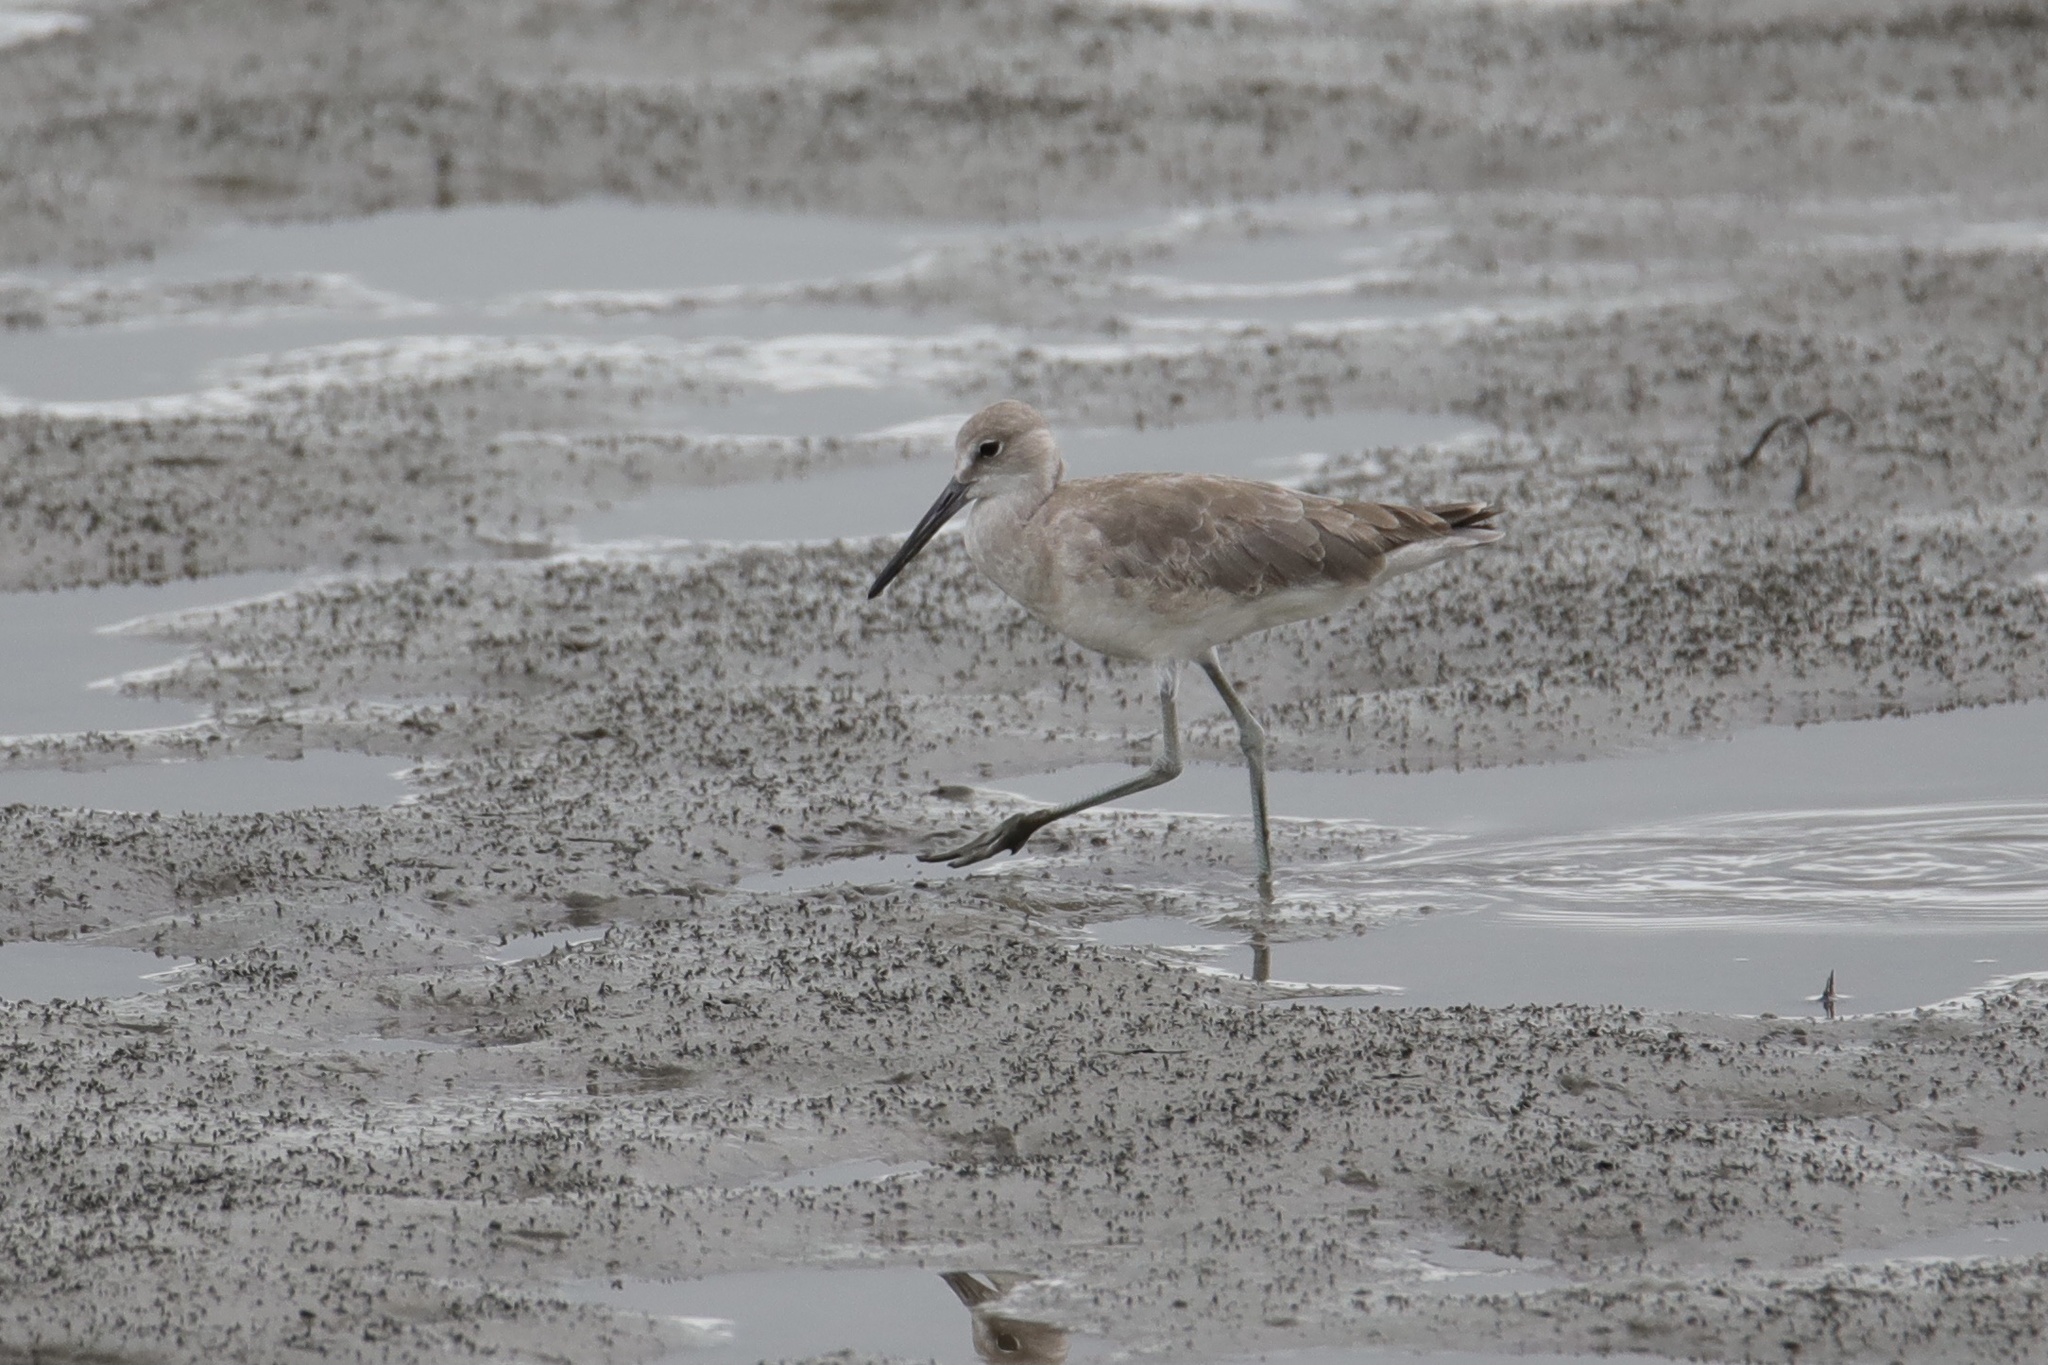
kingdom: Animalia
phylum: Chordata
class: Aves
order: Charadriiformes
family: Scolopacidae
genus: Tringa
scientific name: Tringa semipalmata
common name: Willet
